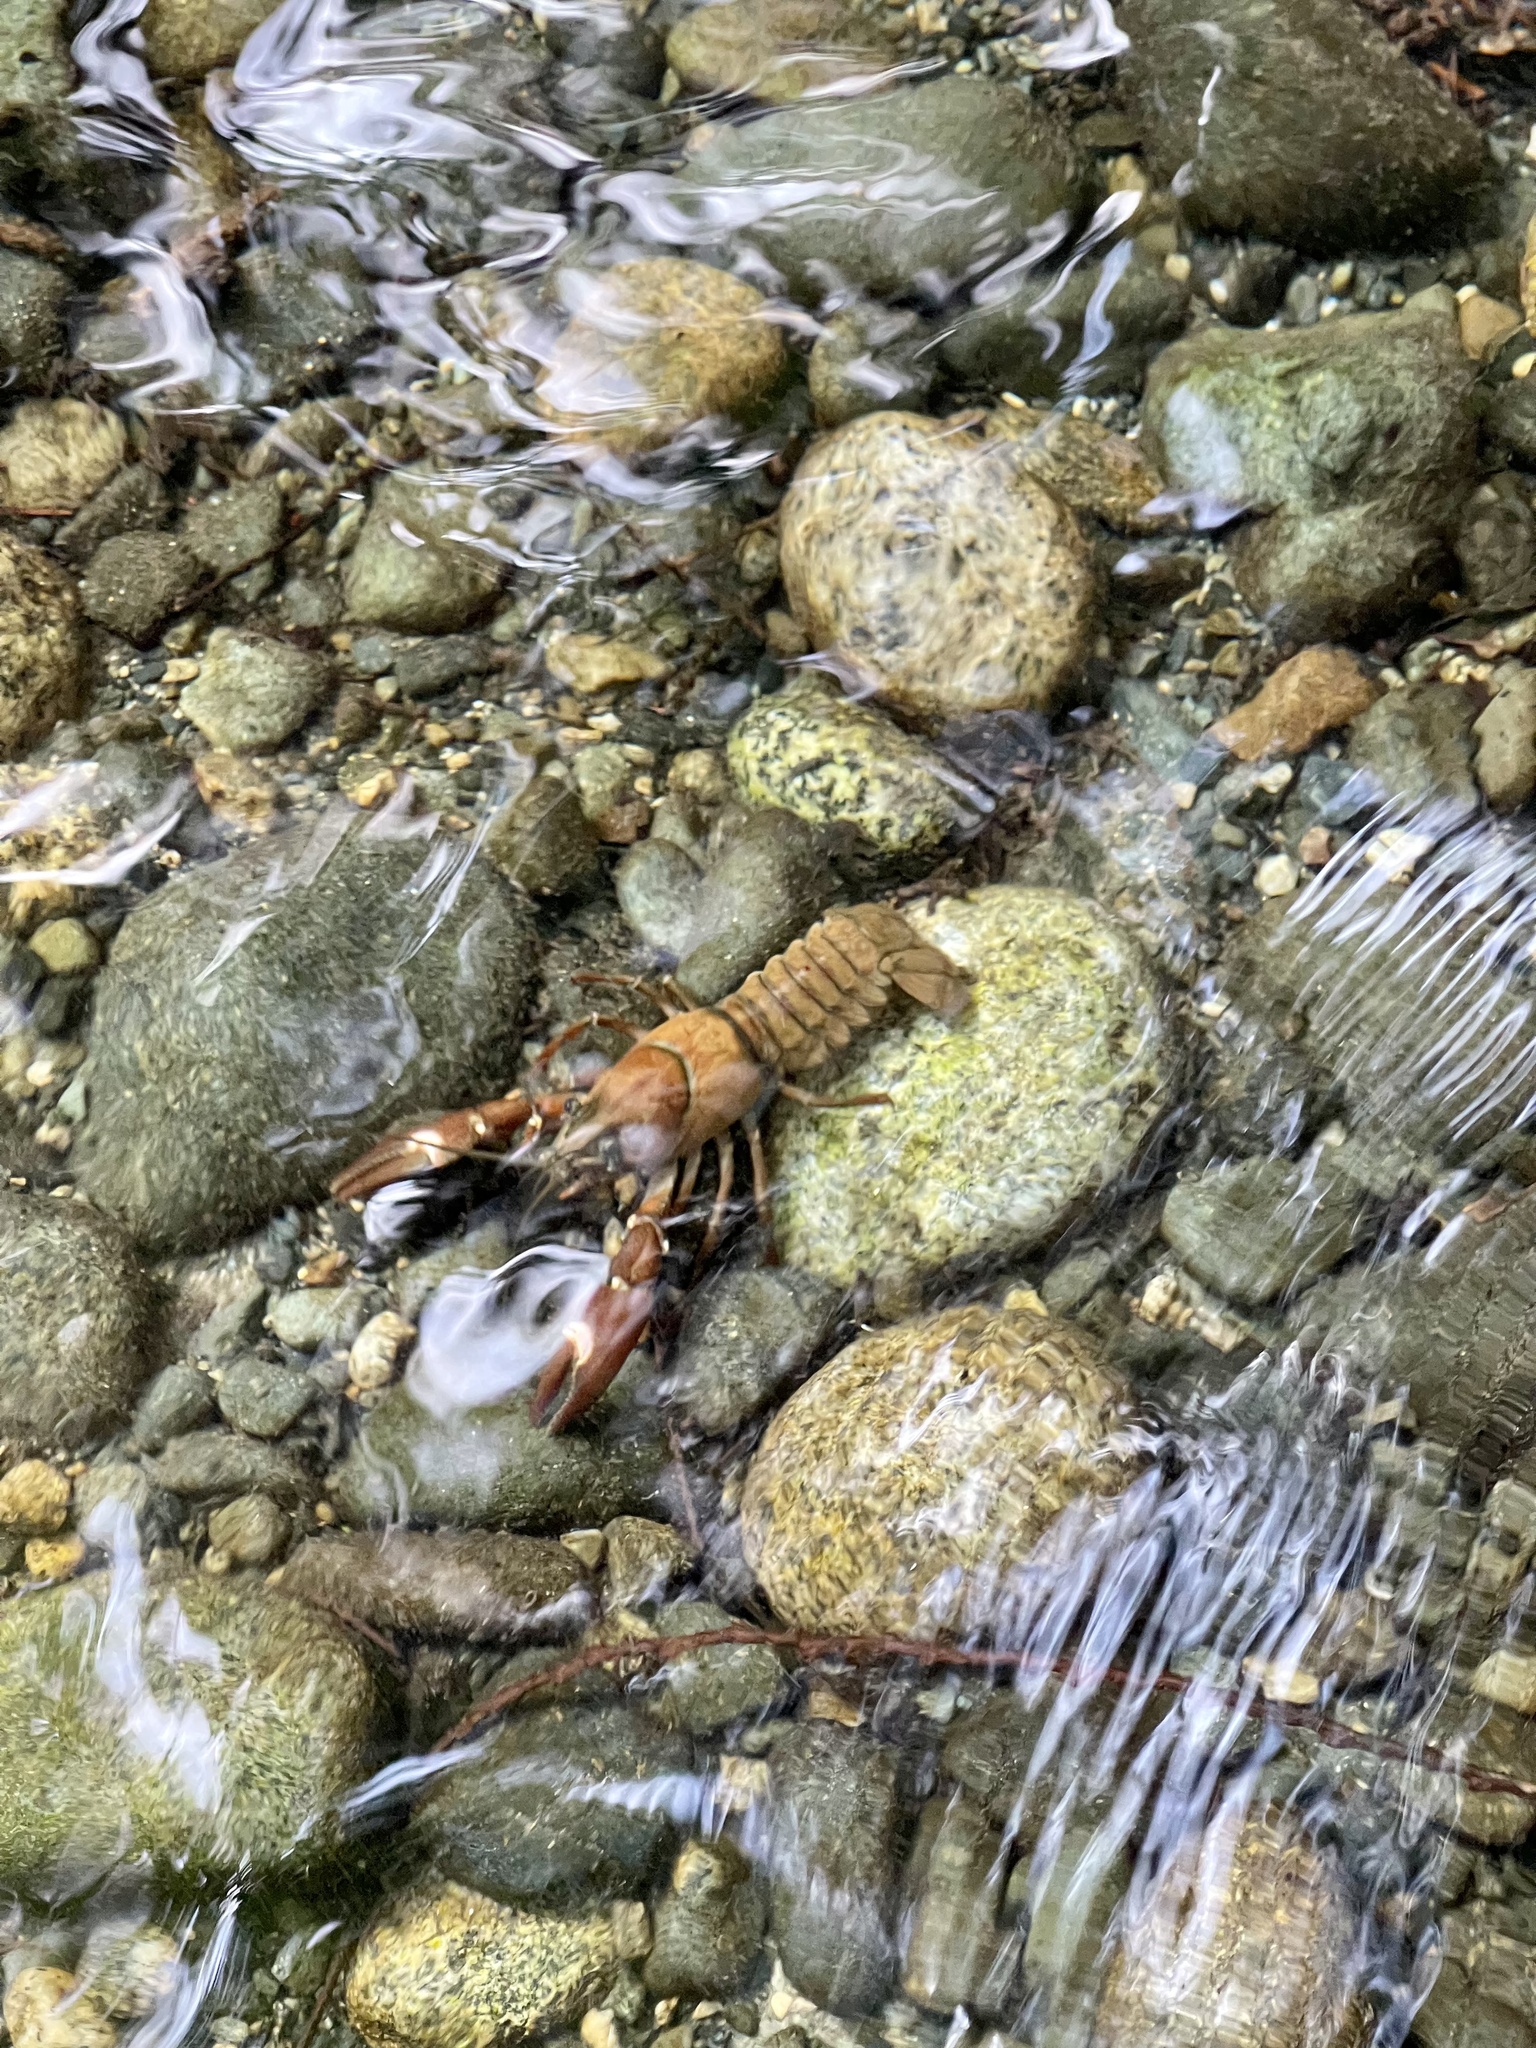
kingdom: Animalia
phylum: Arthropoda
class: Malacostraca
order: Decapoda
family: Astacidae
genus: Pacifastacus
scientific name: Pacifastacus leniusculus
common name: Signal crayfish
